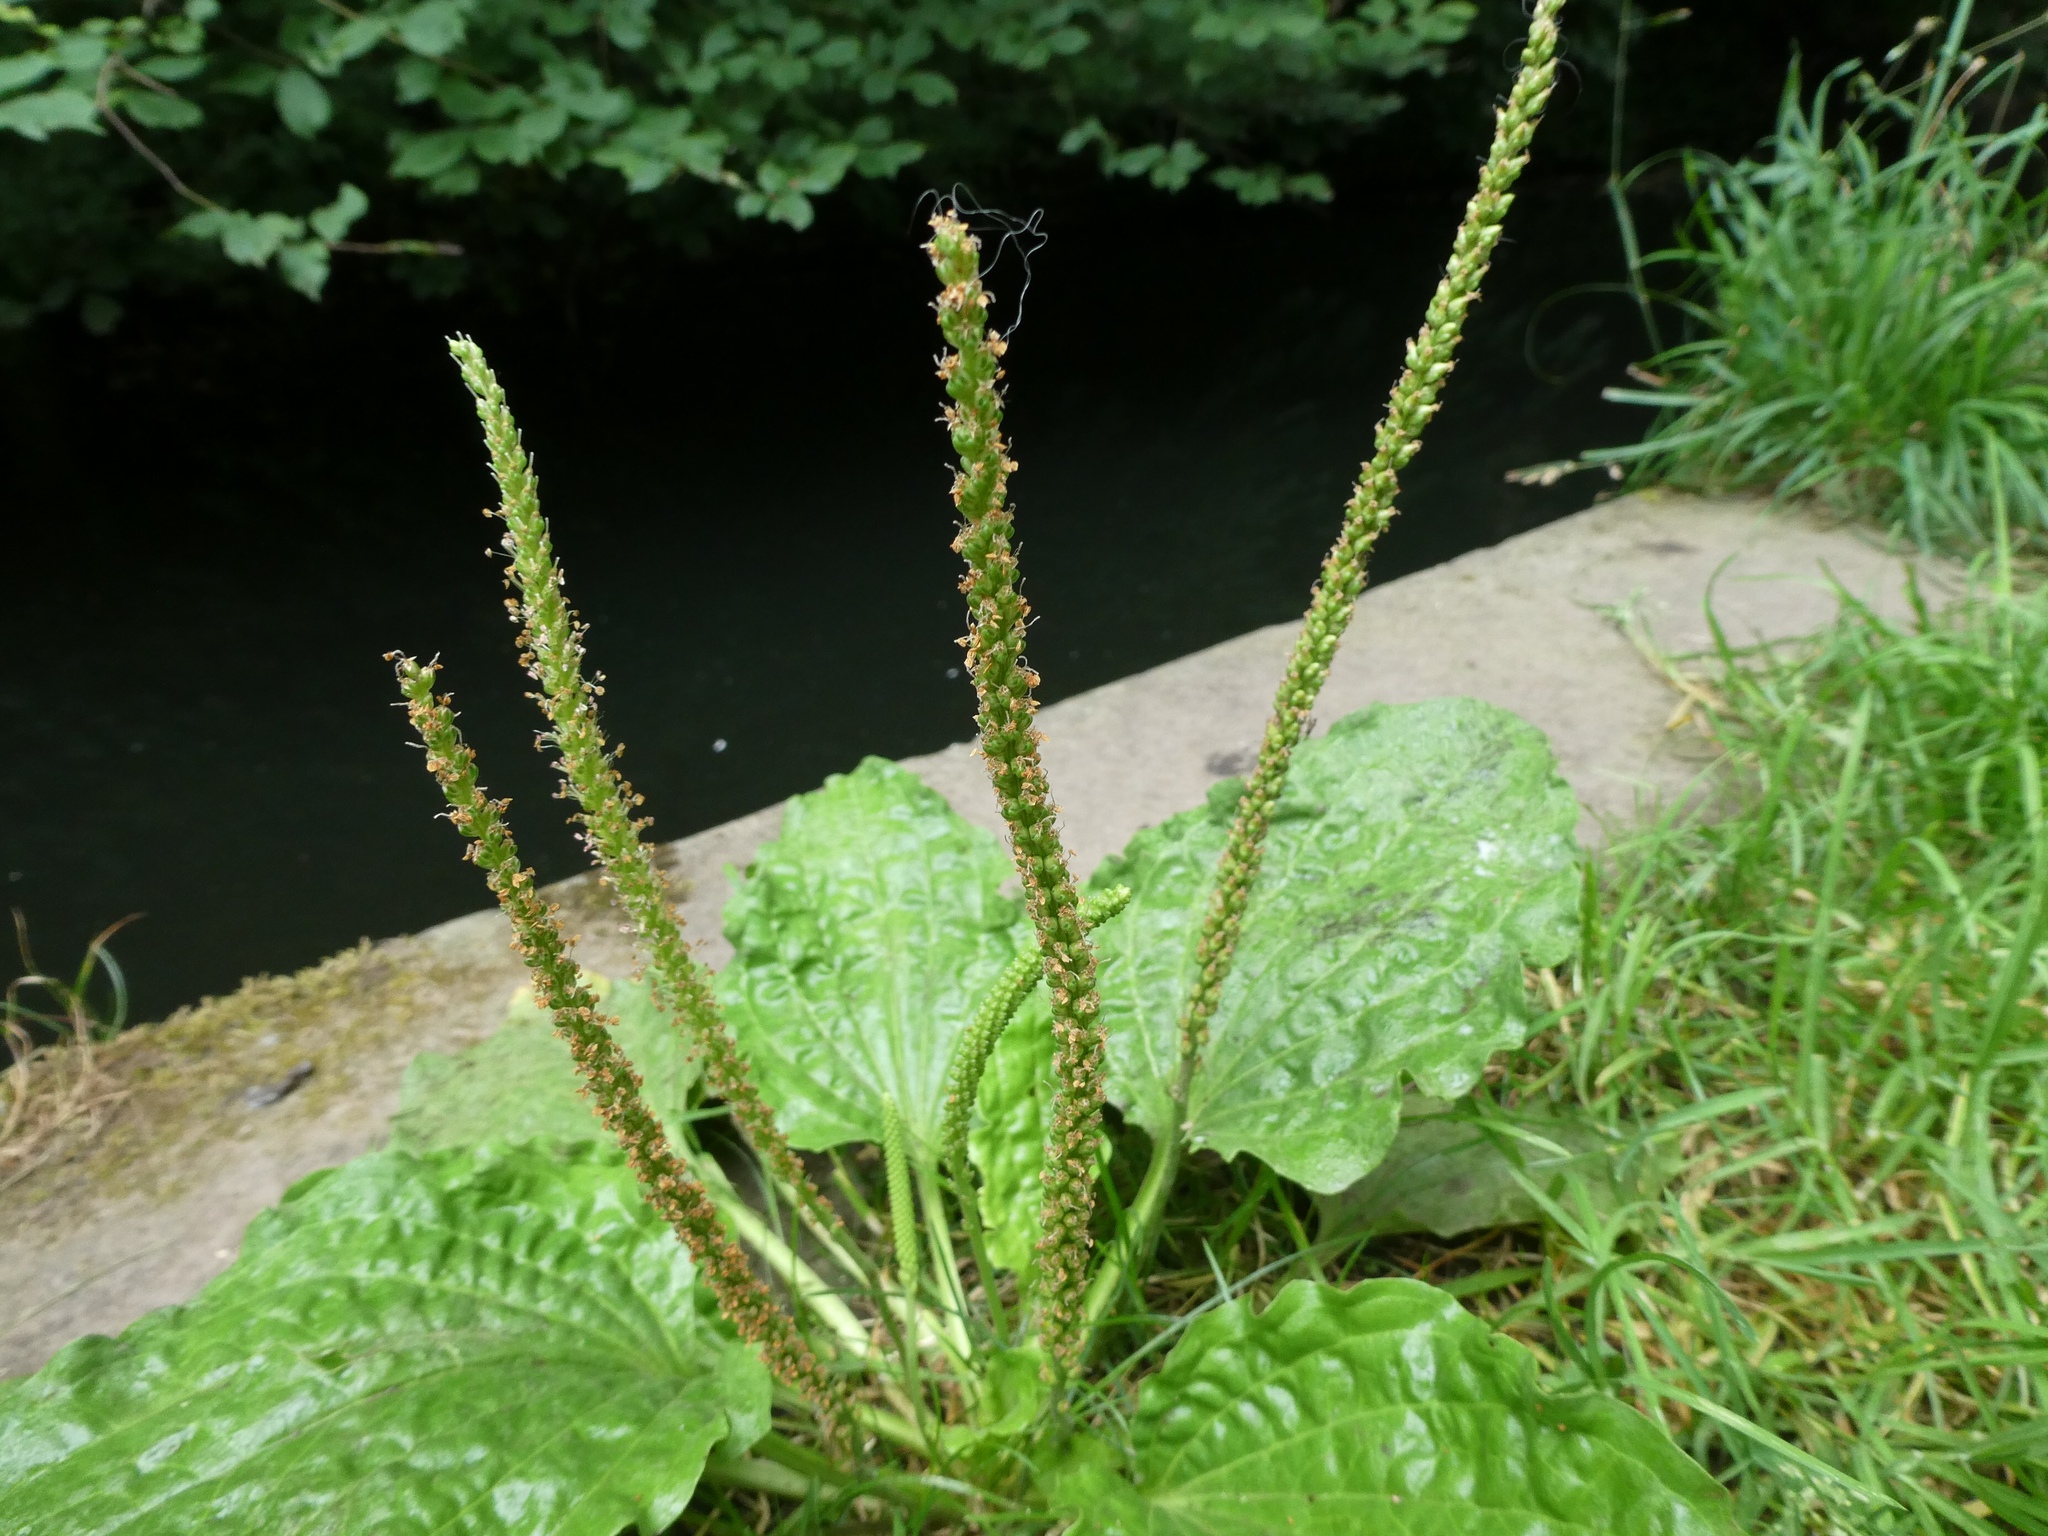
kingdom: Plantae
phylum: Tracheophyta
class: Magnoliopsida
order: Lamiales
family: Plantaginaceae
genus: Plantago
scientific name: Plantago major
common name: Common plantain
